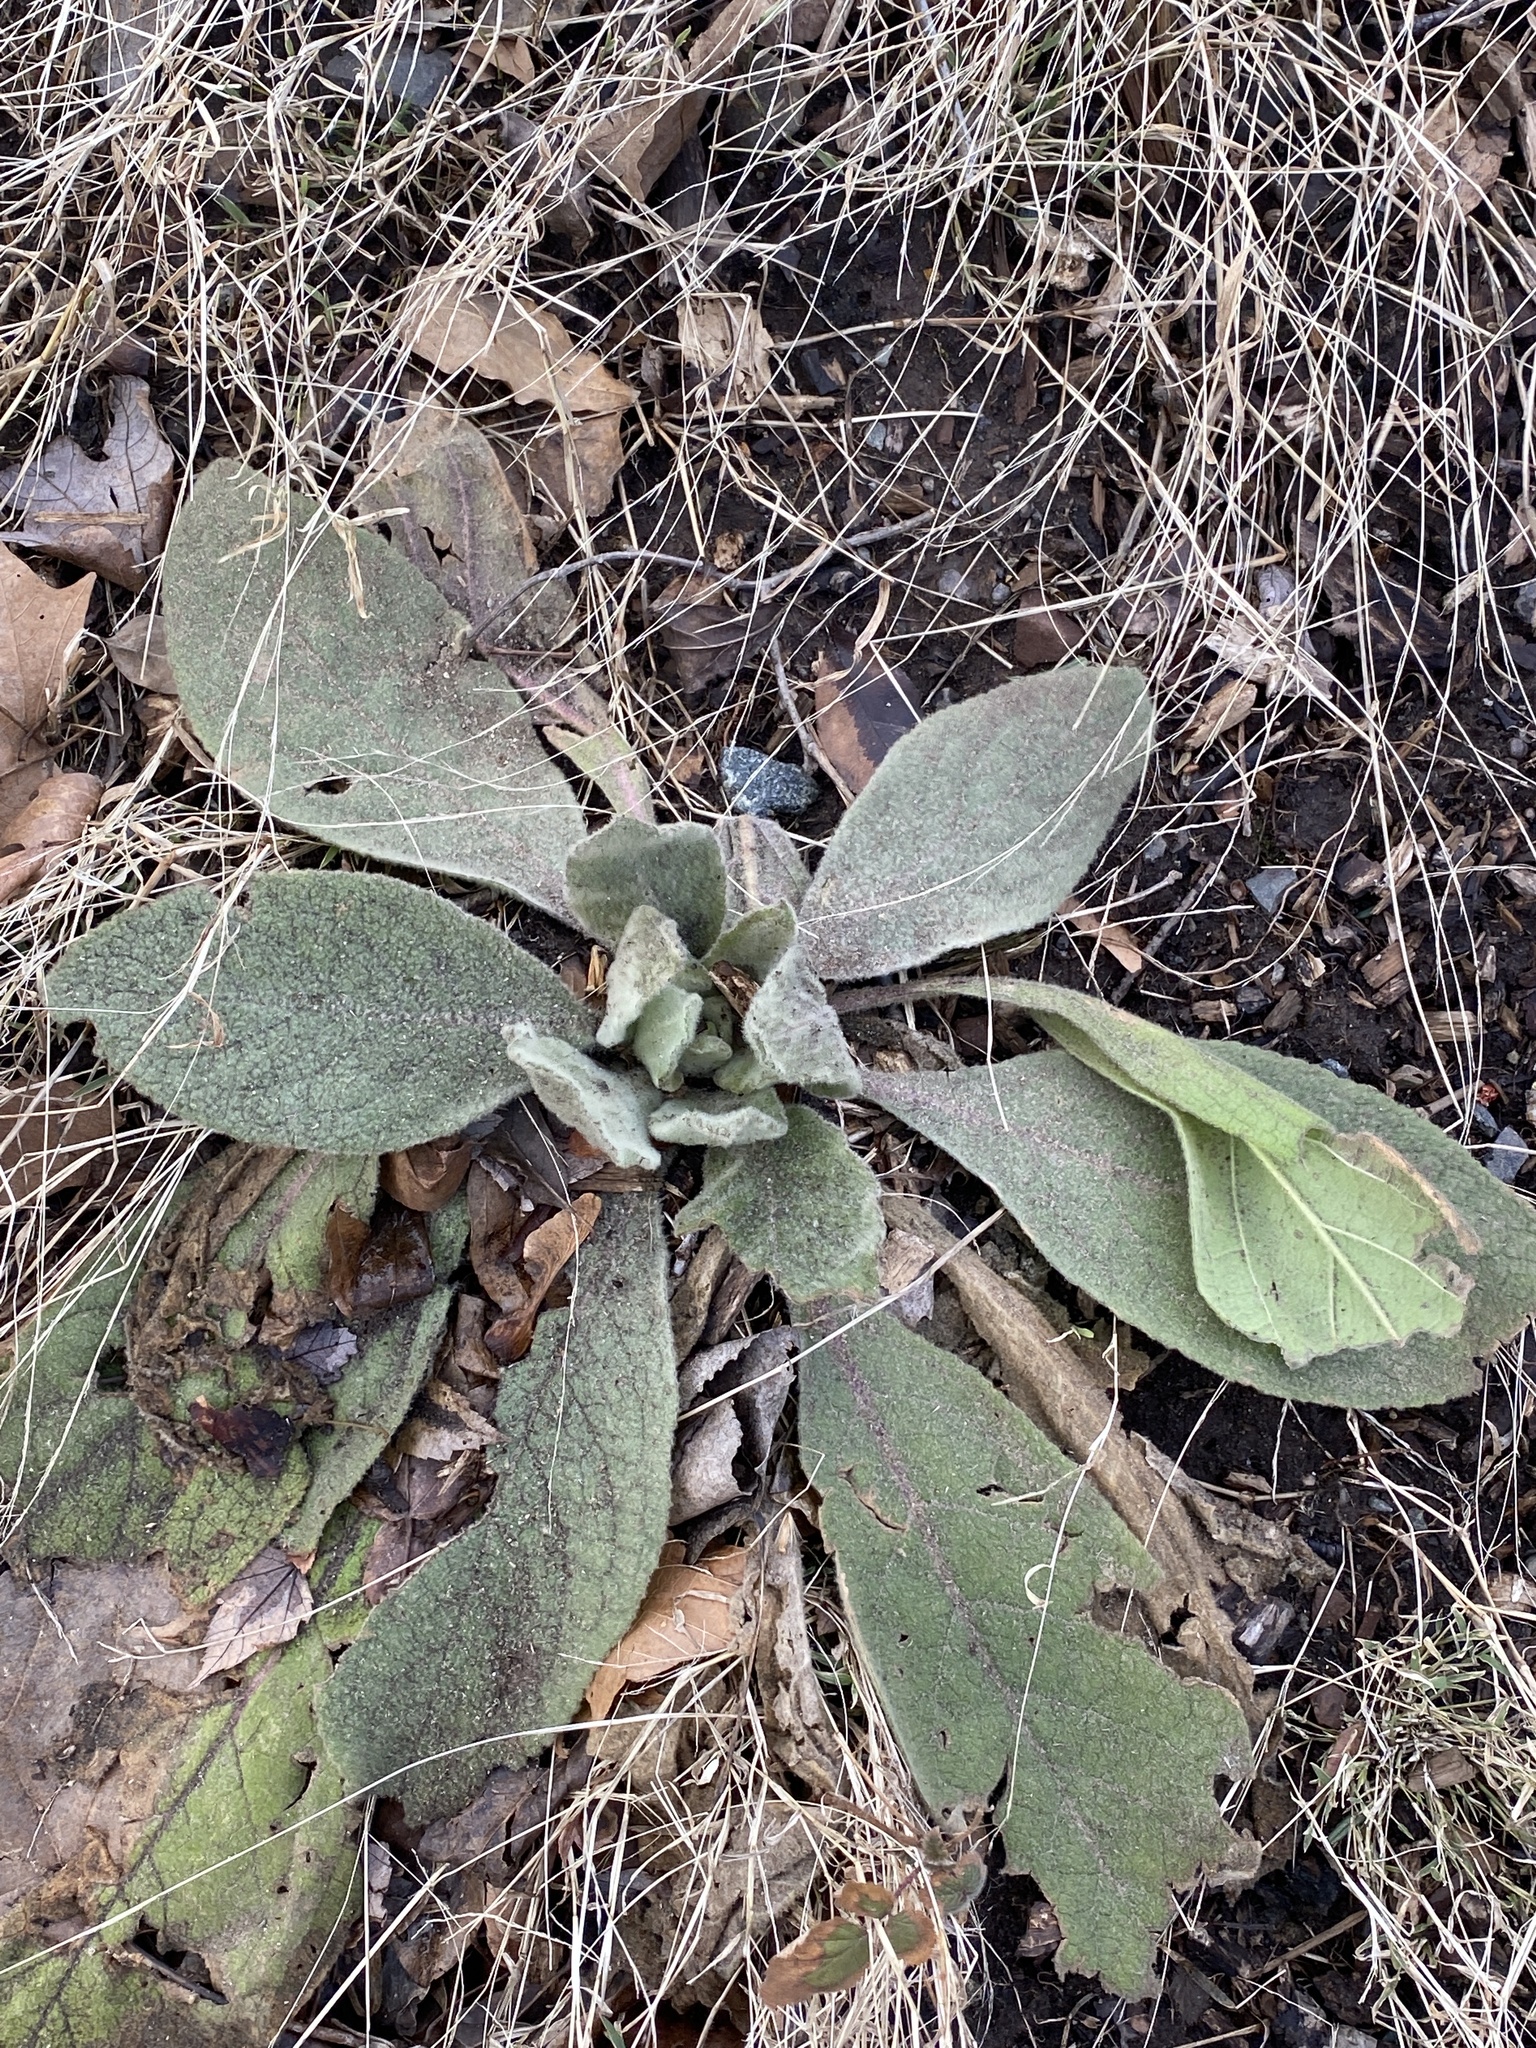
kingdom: Plantae
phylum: Tracheophyta
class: Magnoliopsida
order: Lamiales
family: Scrophulariaceae
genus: Verbascum
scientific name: Verbascum thapsus
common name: Common mullein
